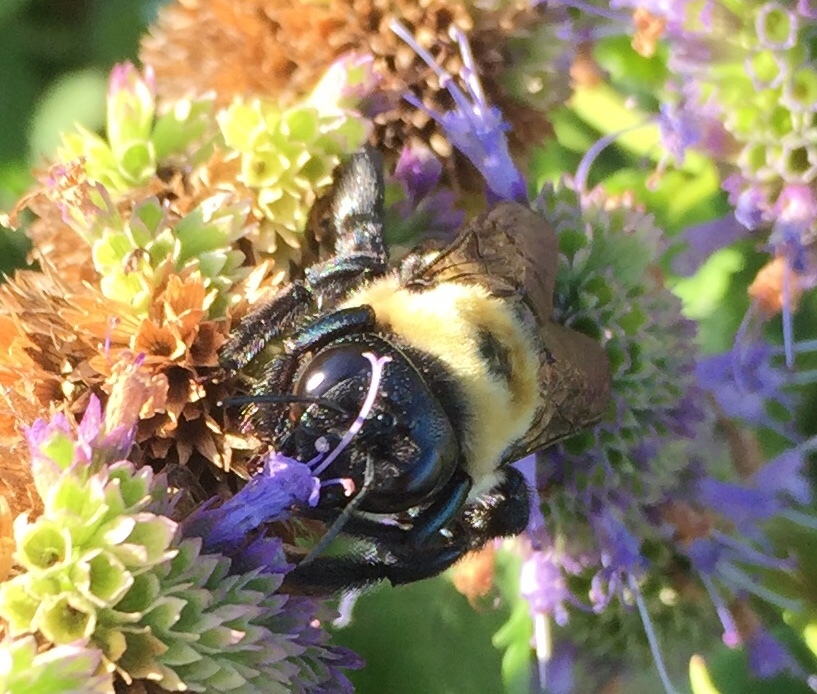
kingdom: Animalia
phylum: Arthropoda
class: Insecta
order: Hymenoptera
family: Apidae
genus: Xylocopa
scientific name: Xylocopa virginica
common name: Carpenter bee
